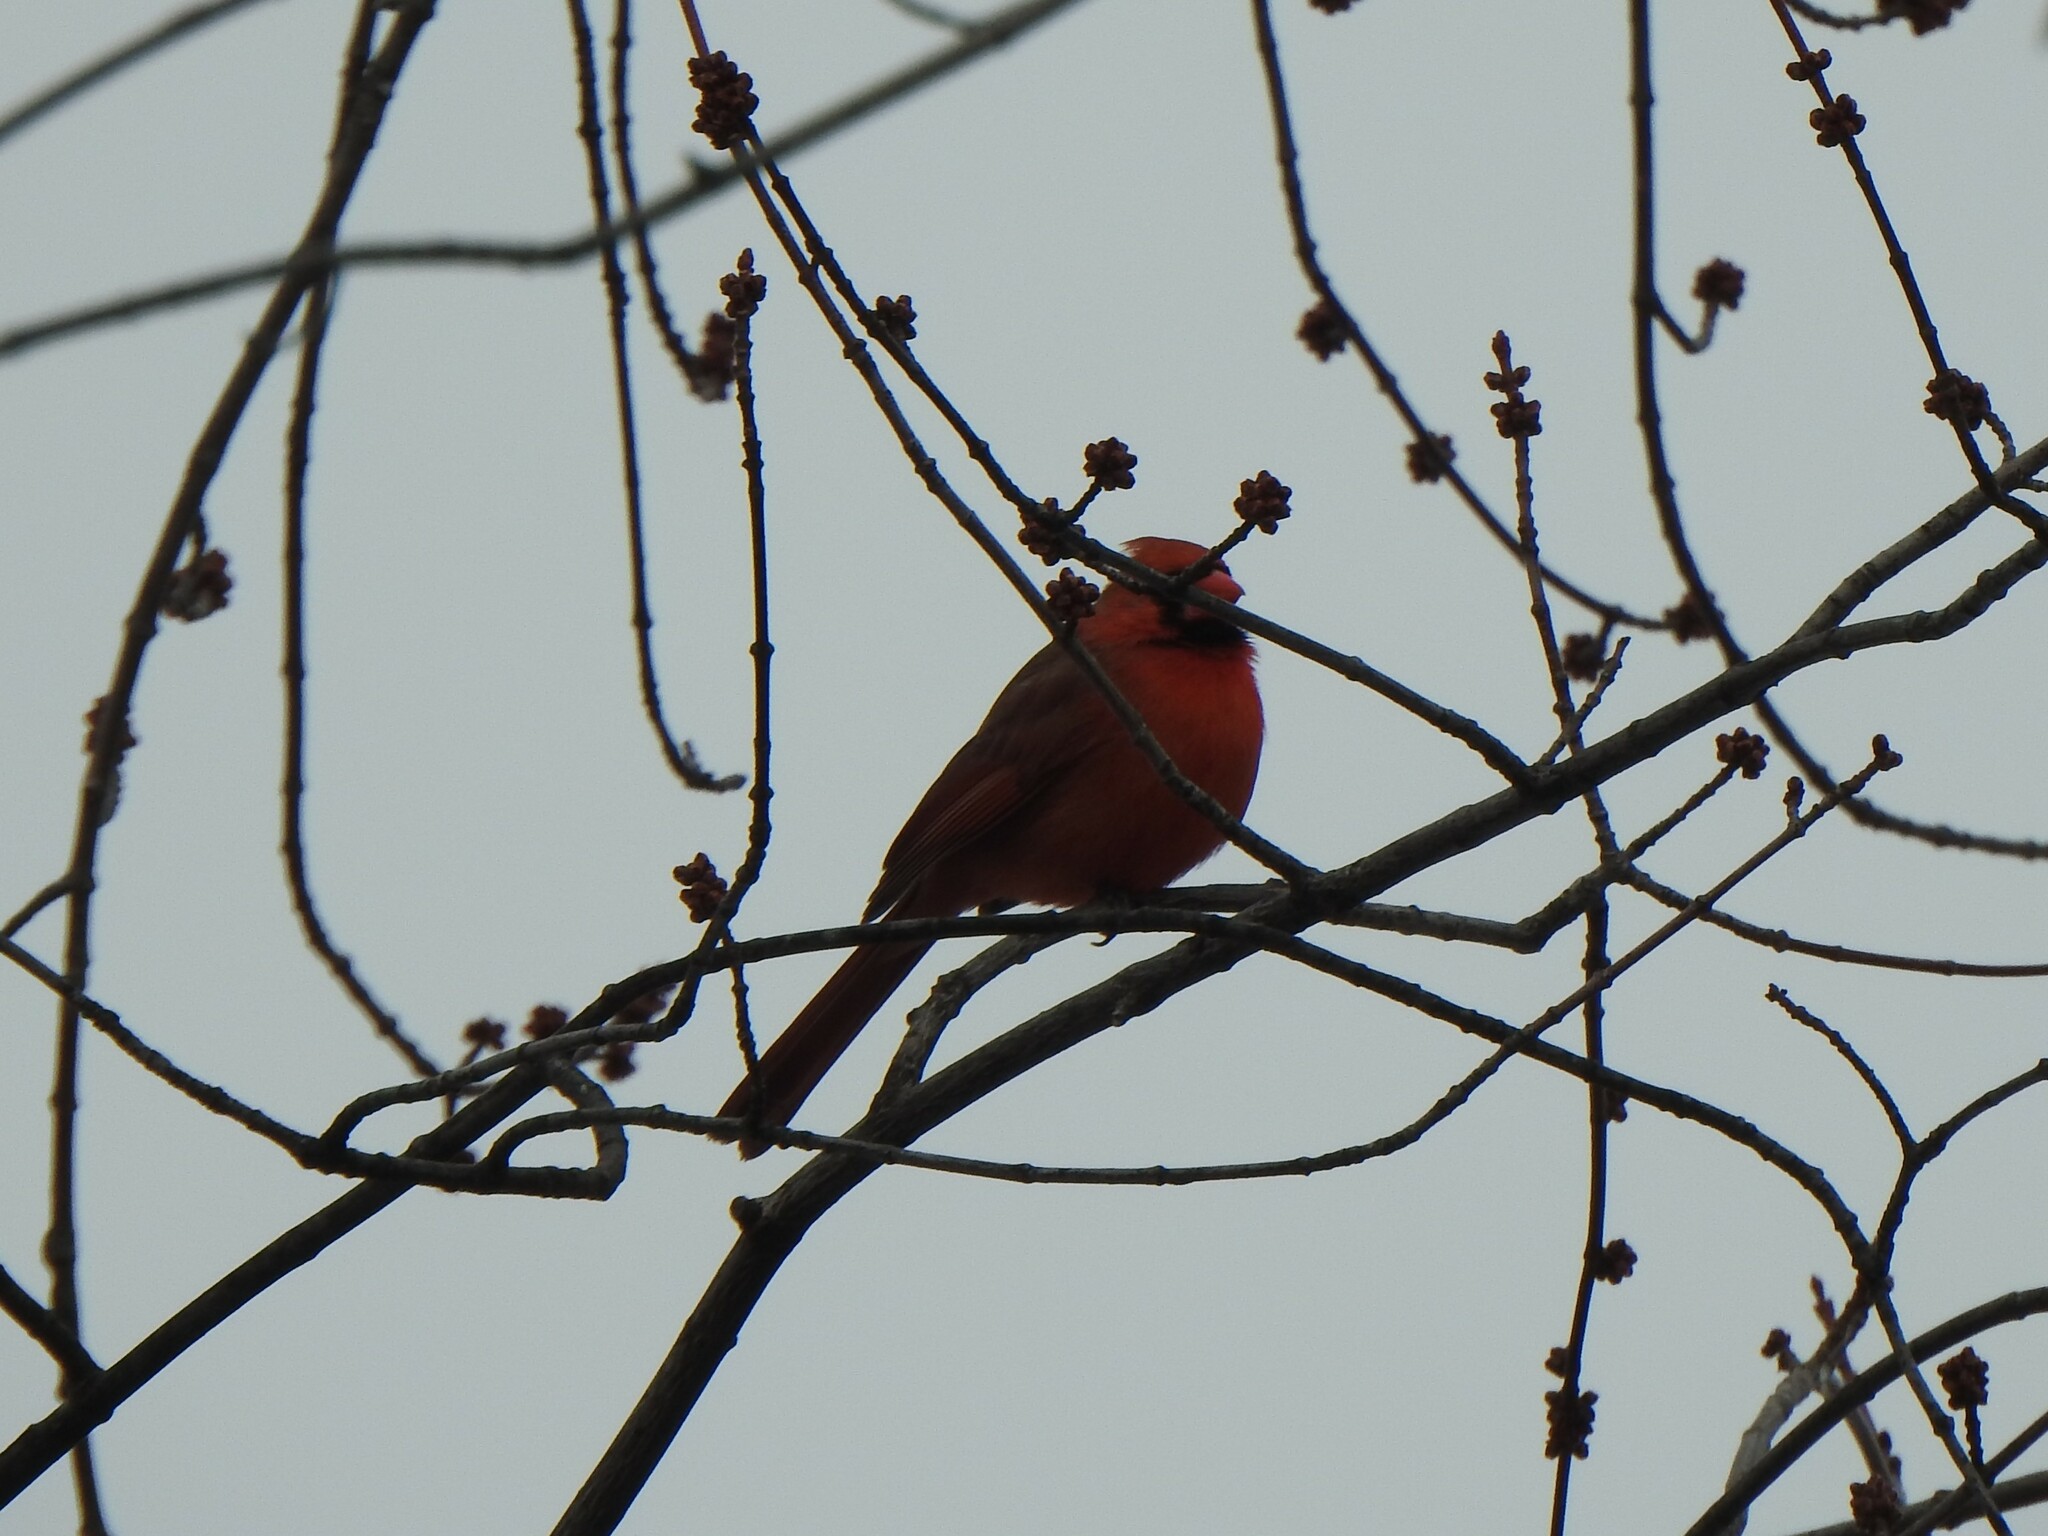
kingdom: Animalia
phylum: Chordata
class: Aves
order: Passeriformes
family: Cardinalidae
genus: Cardinalis
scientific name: Cardinalis cardinalis
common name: Northern cardinal
